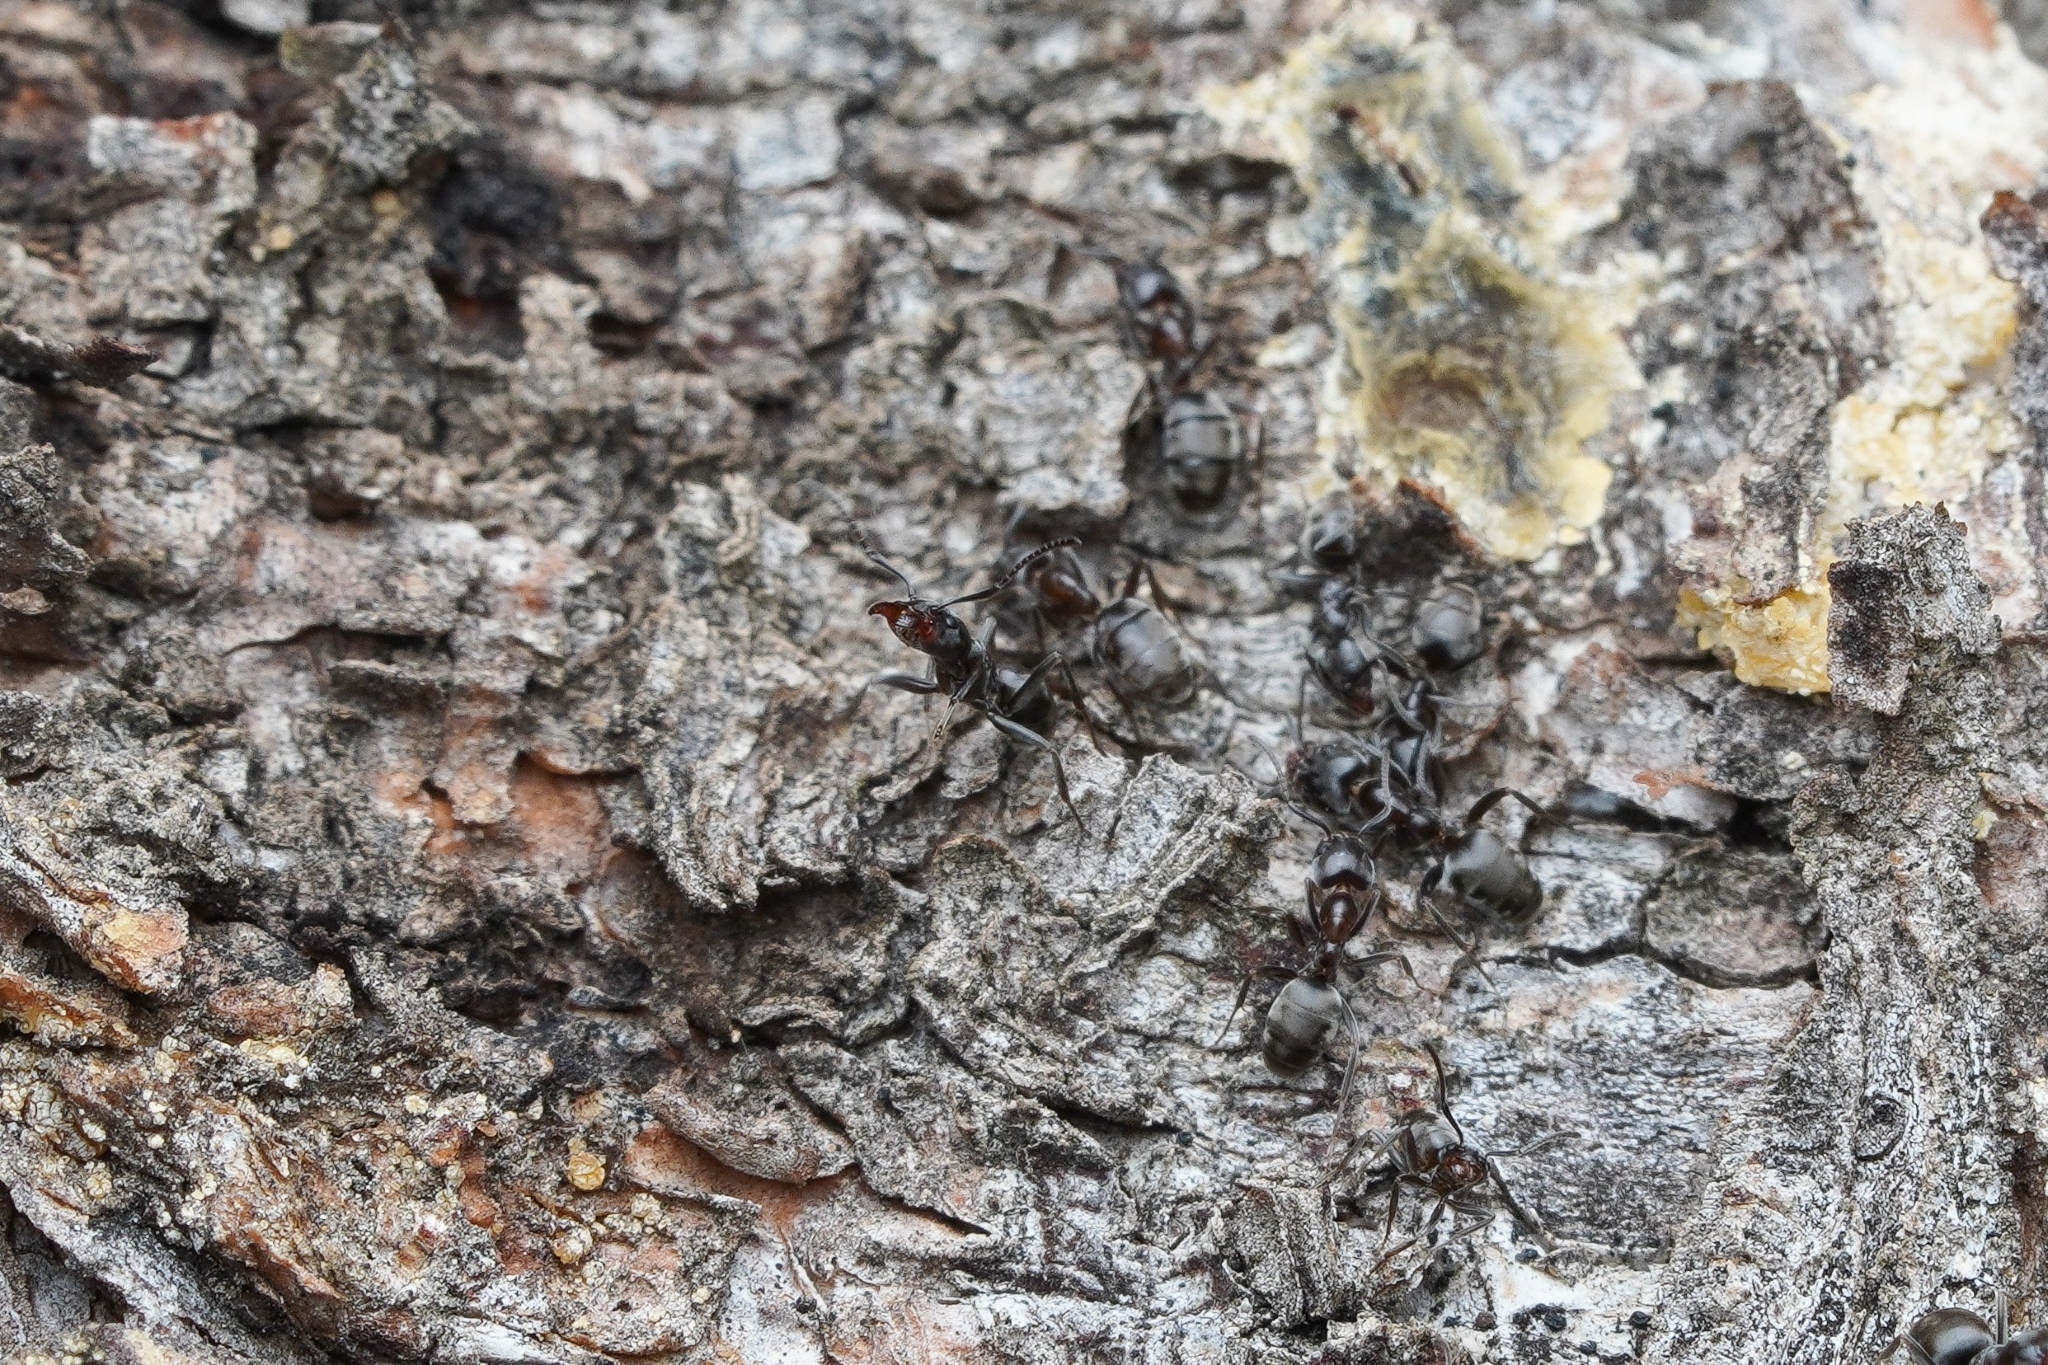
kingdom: Animalia
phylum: Arthropoda
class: Insecta
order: Hymenoptera
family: Formicidae
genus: Liometopum
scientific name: Liometopum luctuosum
